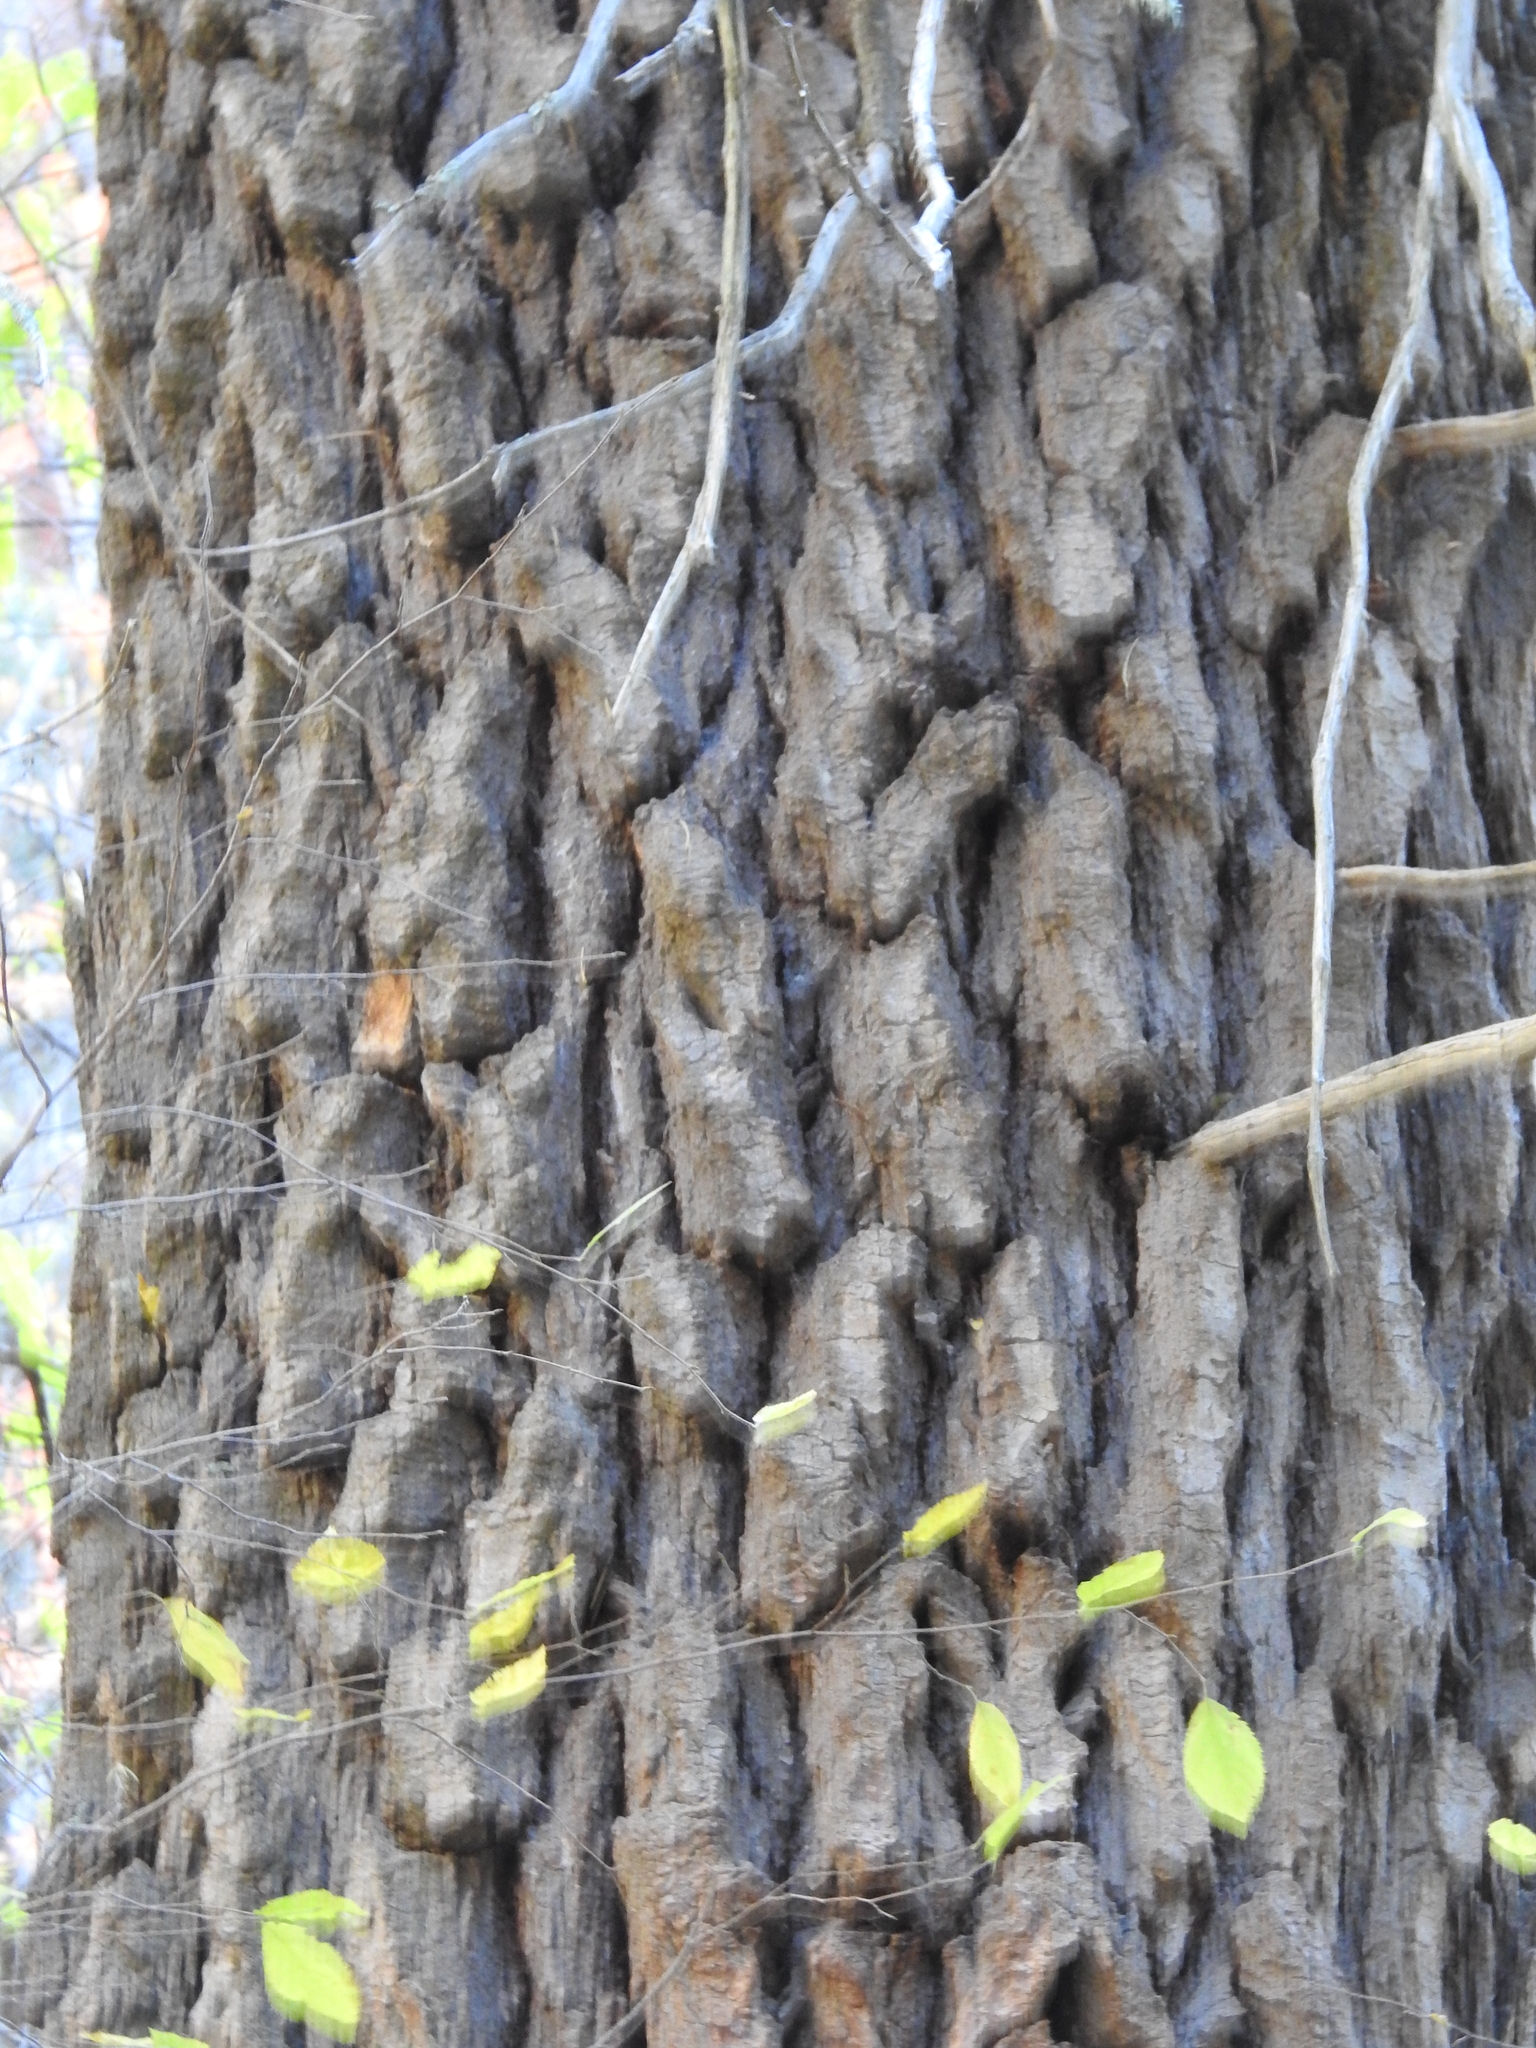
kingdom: Plantae
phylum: Tracheophyta
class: Pinopsida
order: Pinales
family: Pinaceae
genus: Abies
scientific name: Abies concolor
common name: Colorado fir
